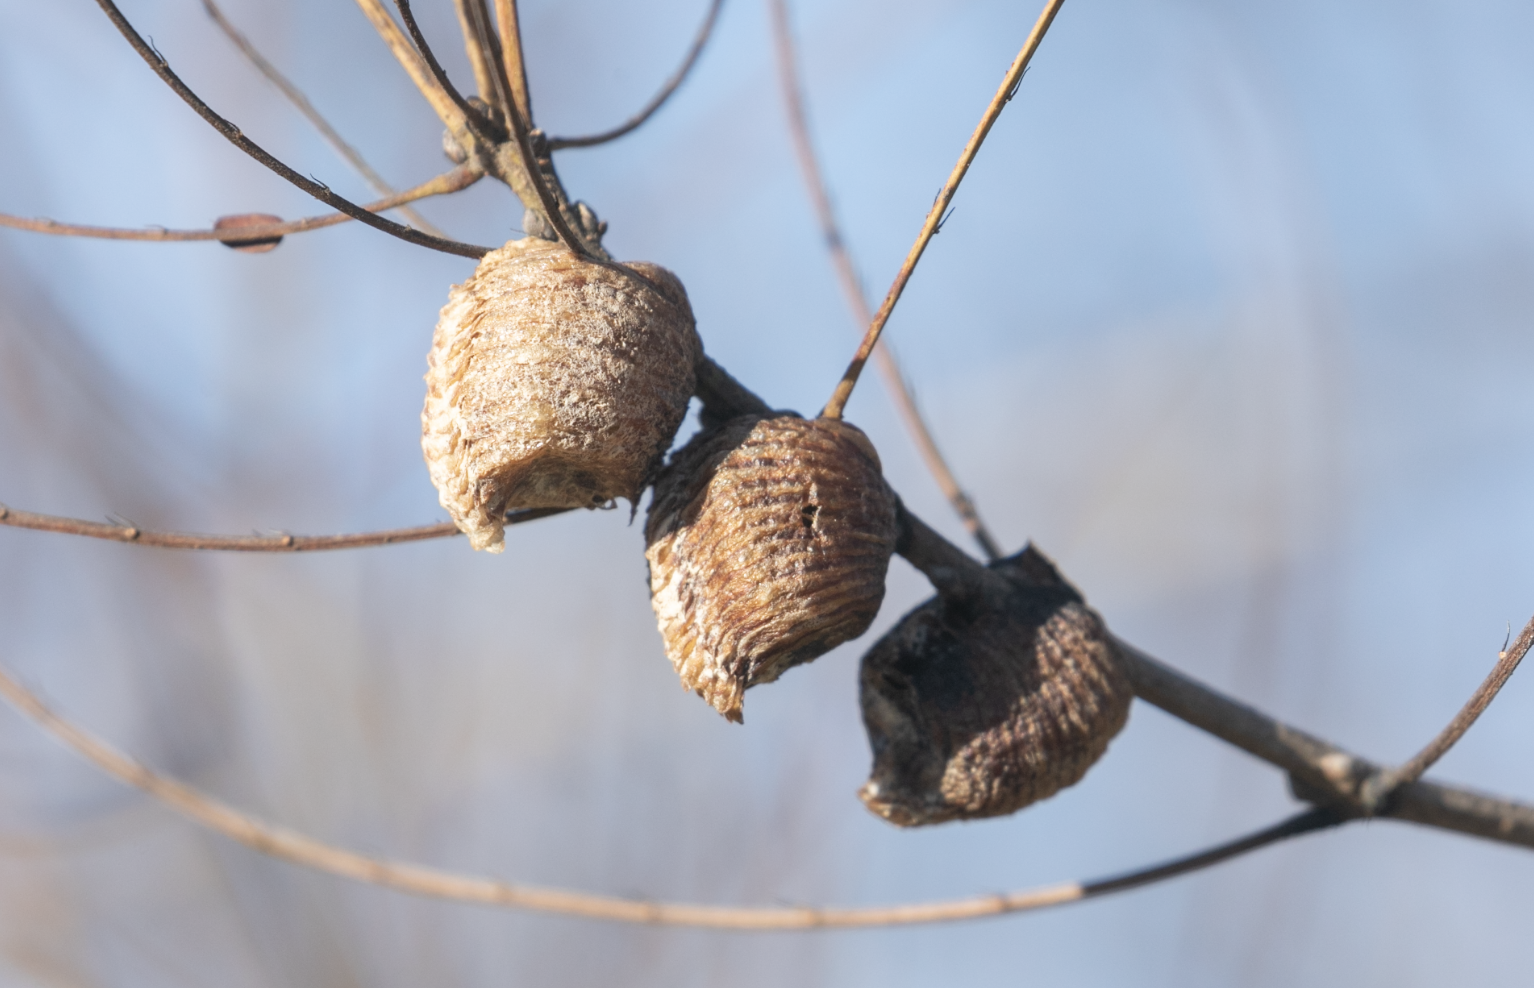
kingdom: Animalia
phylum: Arthropoda
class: Insecta
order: Mantodea
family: Mantidae
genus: Hierodula
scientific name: Hierodula transcaucasica
